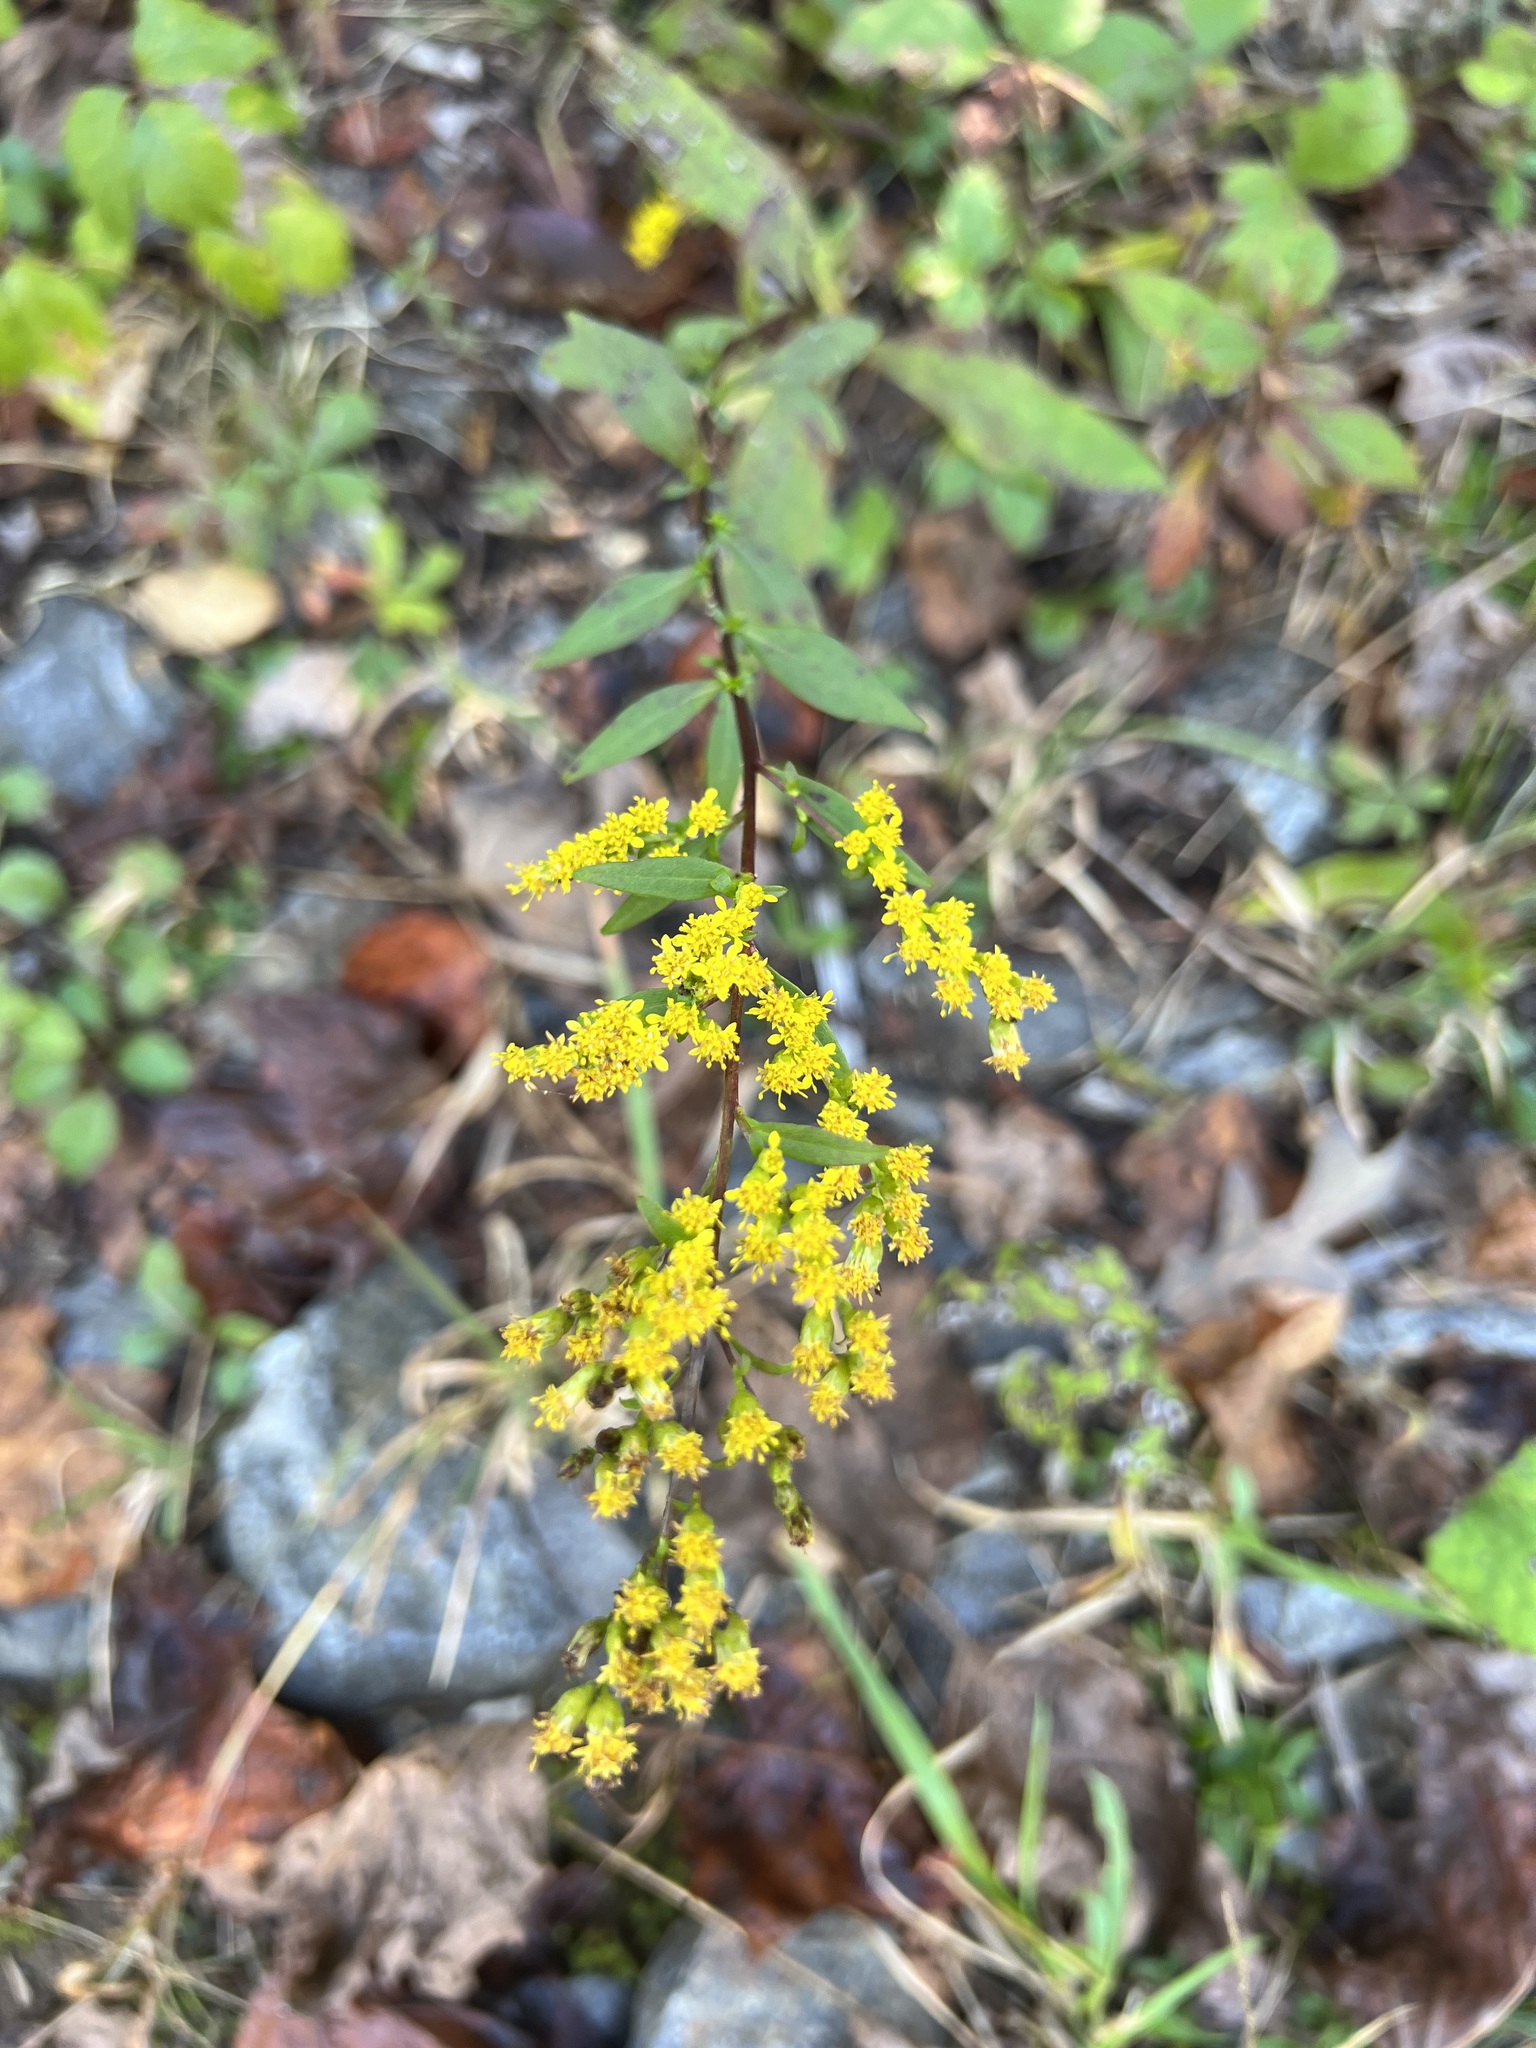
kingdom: Plantae
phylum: Tracheophyta
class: Magnoliopsida
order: Asterales
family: Asteraceae
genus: Solidago
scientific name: Solidago arguta
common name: Atlantic goldenrod
